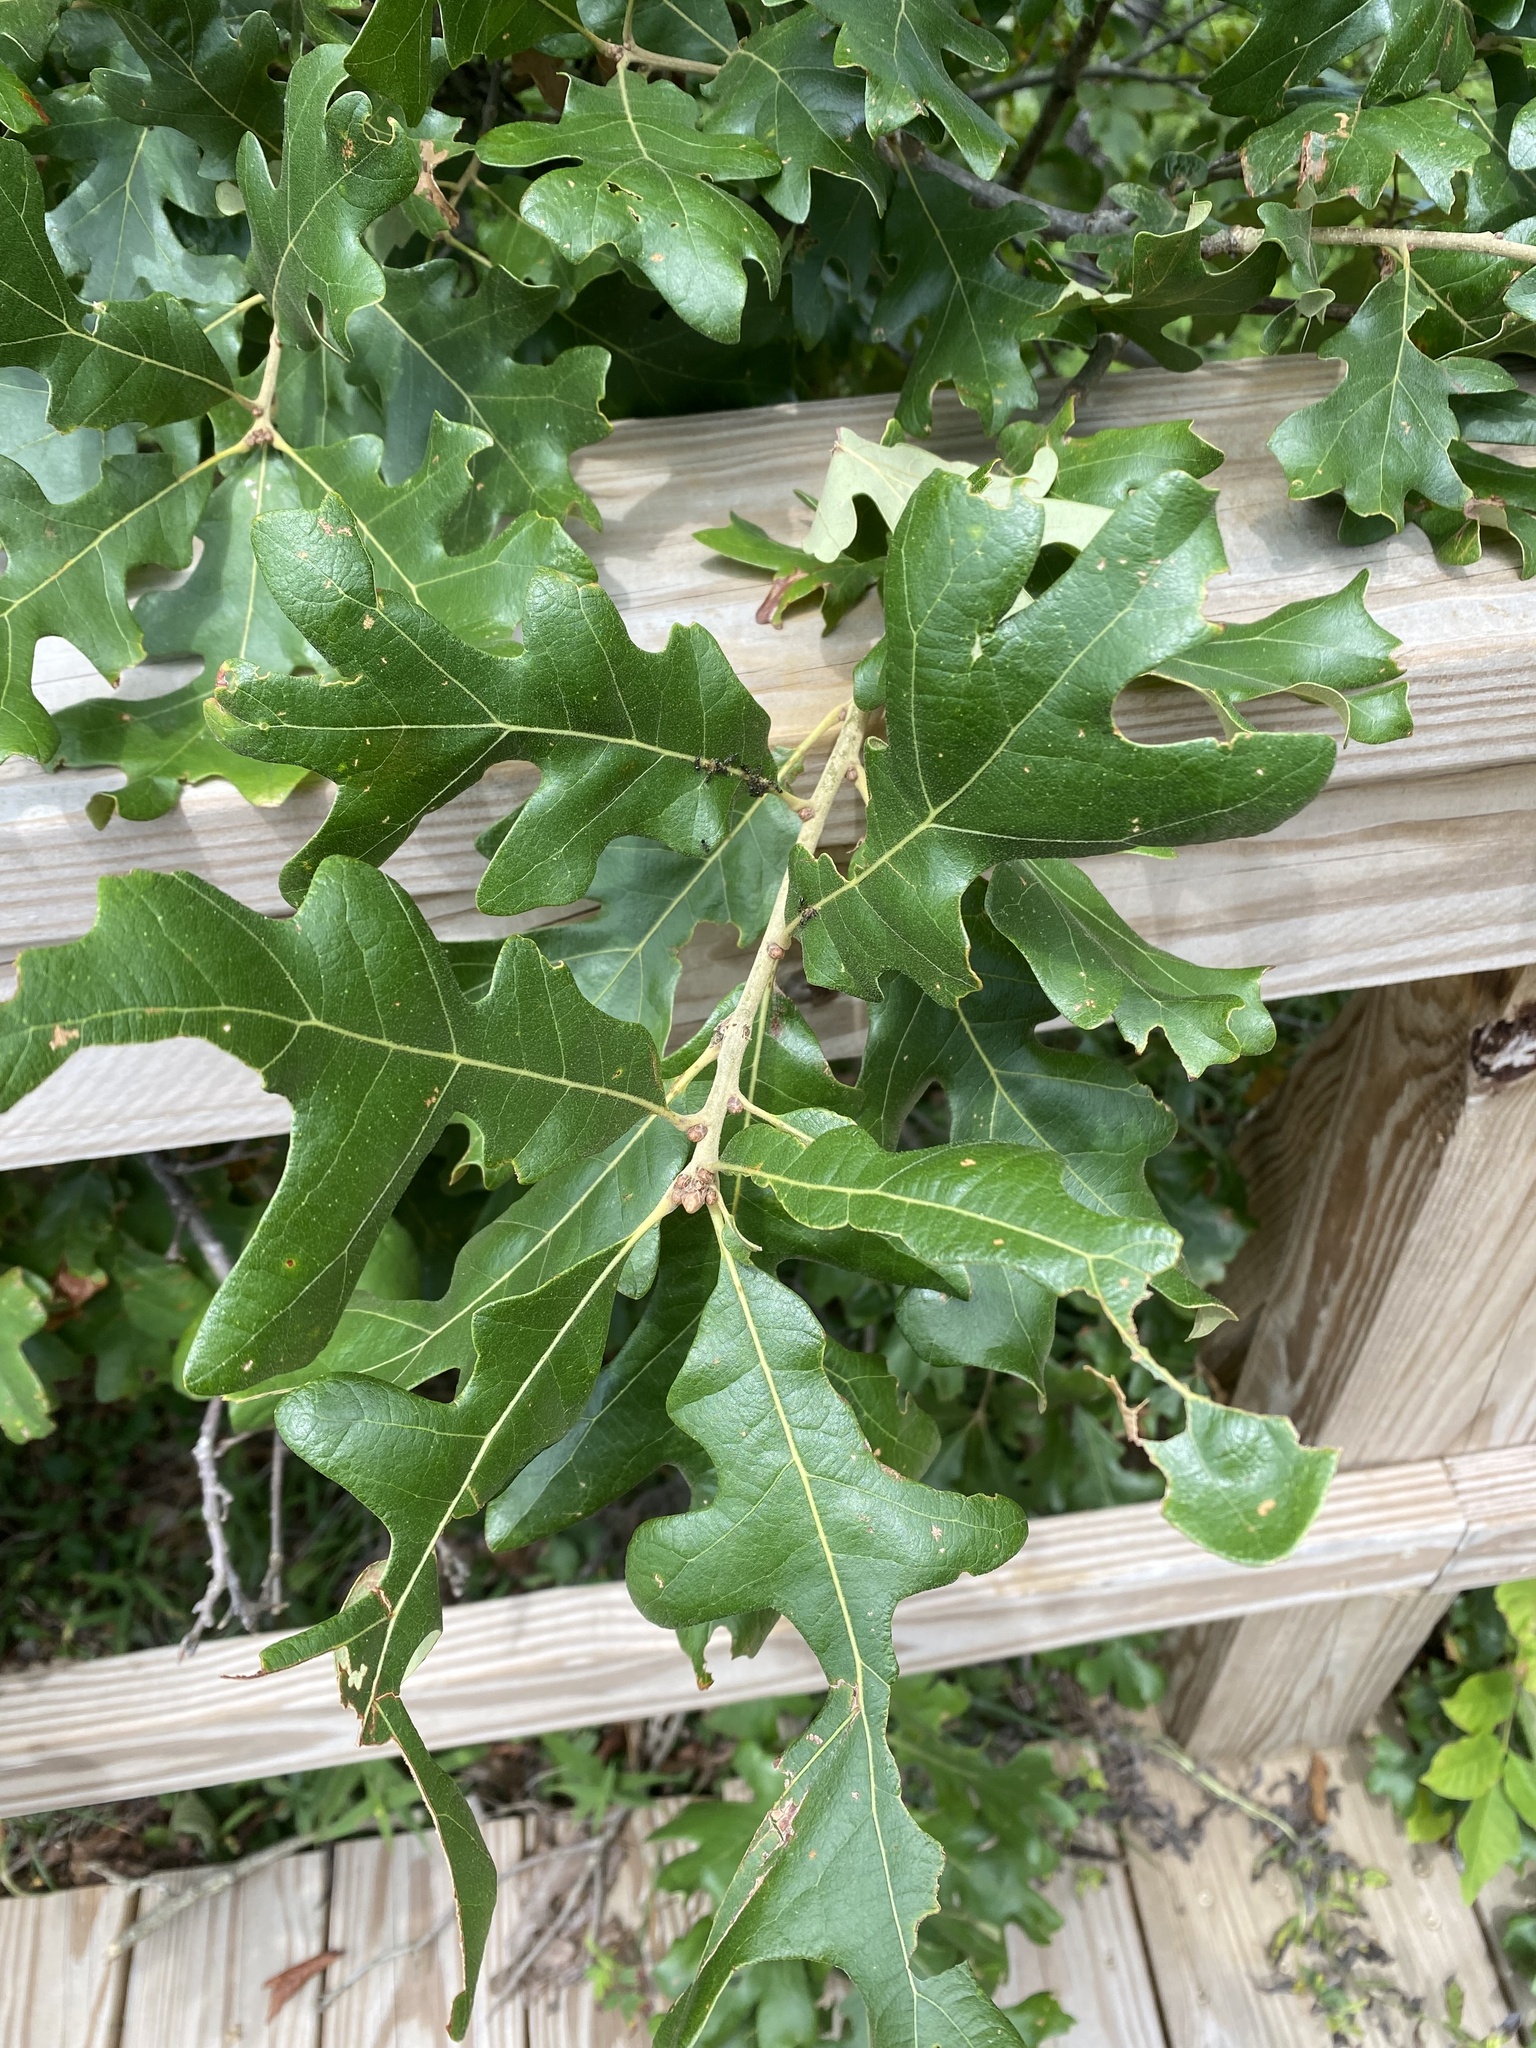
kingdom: Plantae
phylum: Tracheophyta
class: Magnoliopsida
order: Fagales
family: Fagaceae
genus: Quercus
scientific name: Quercus stellata
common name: Post oak
